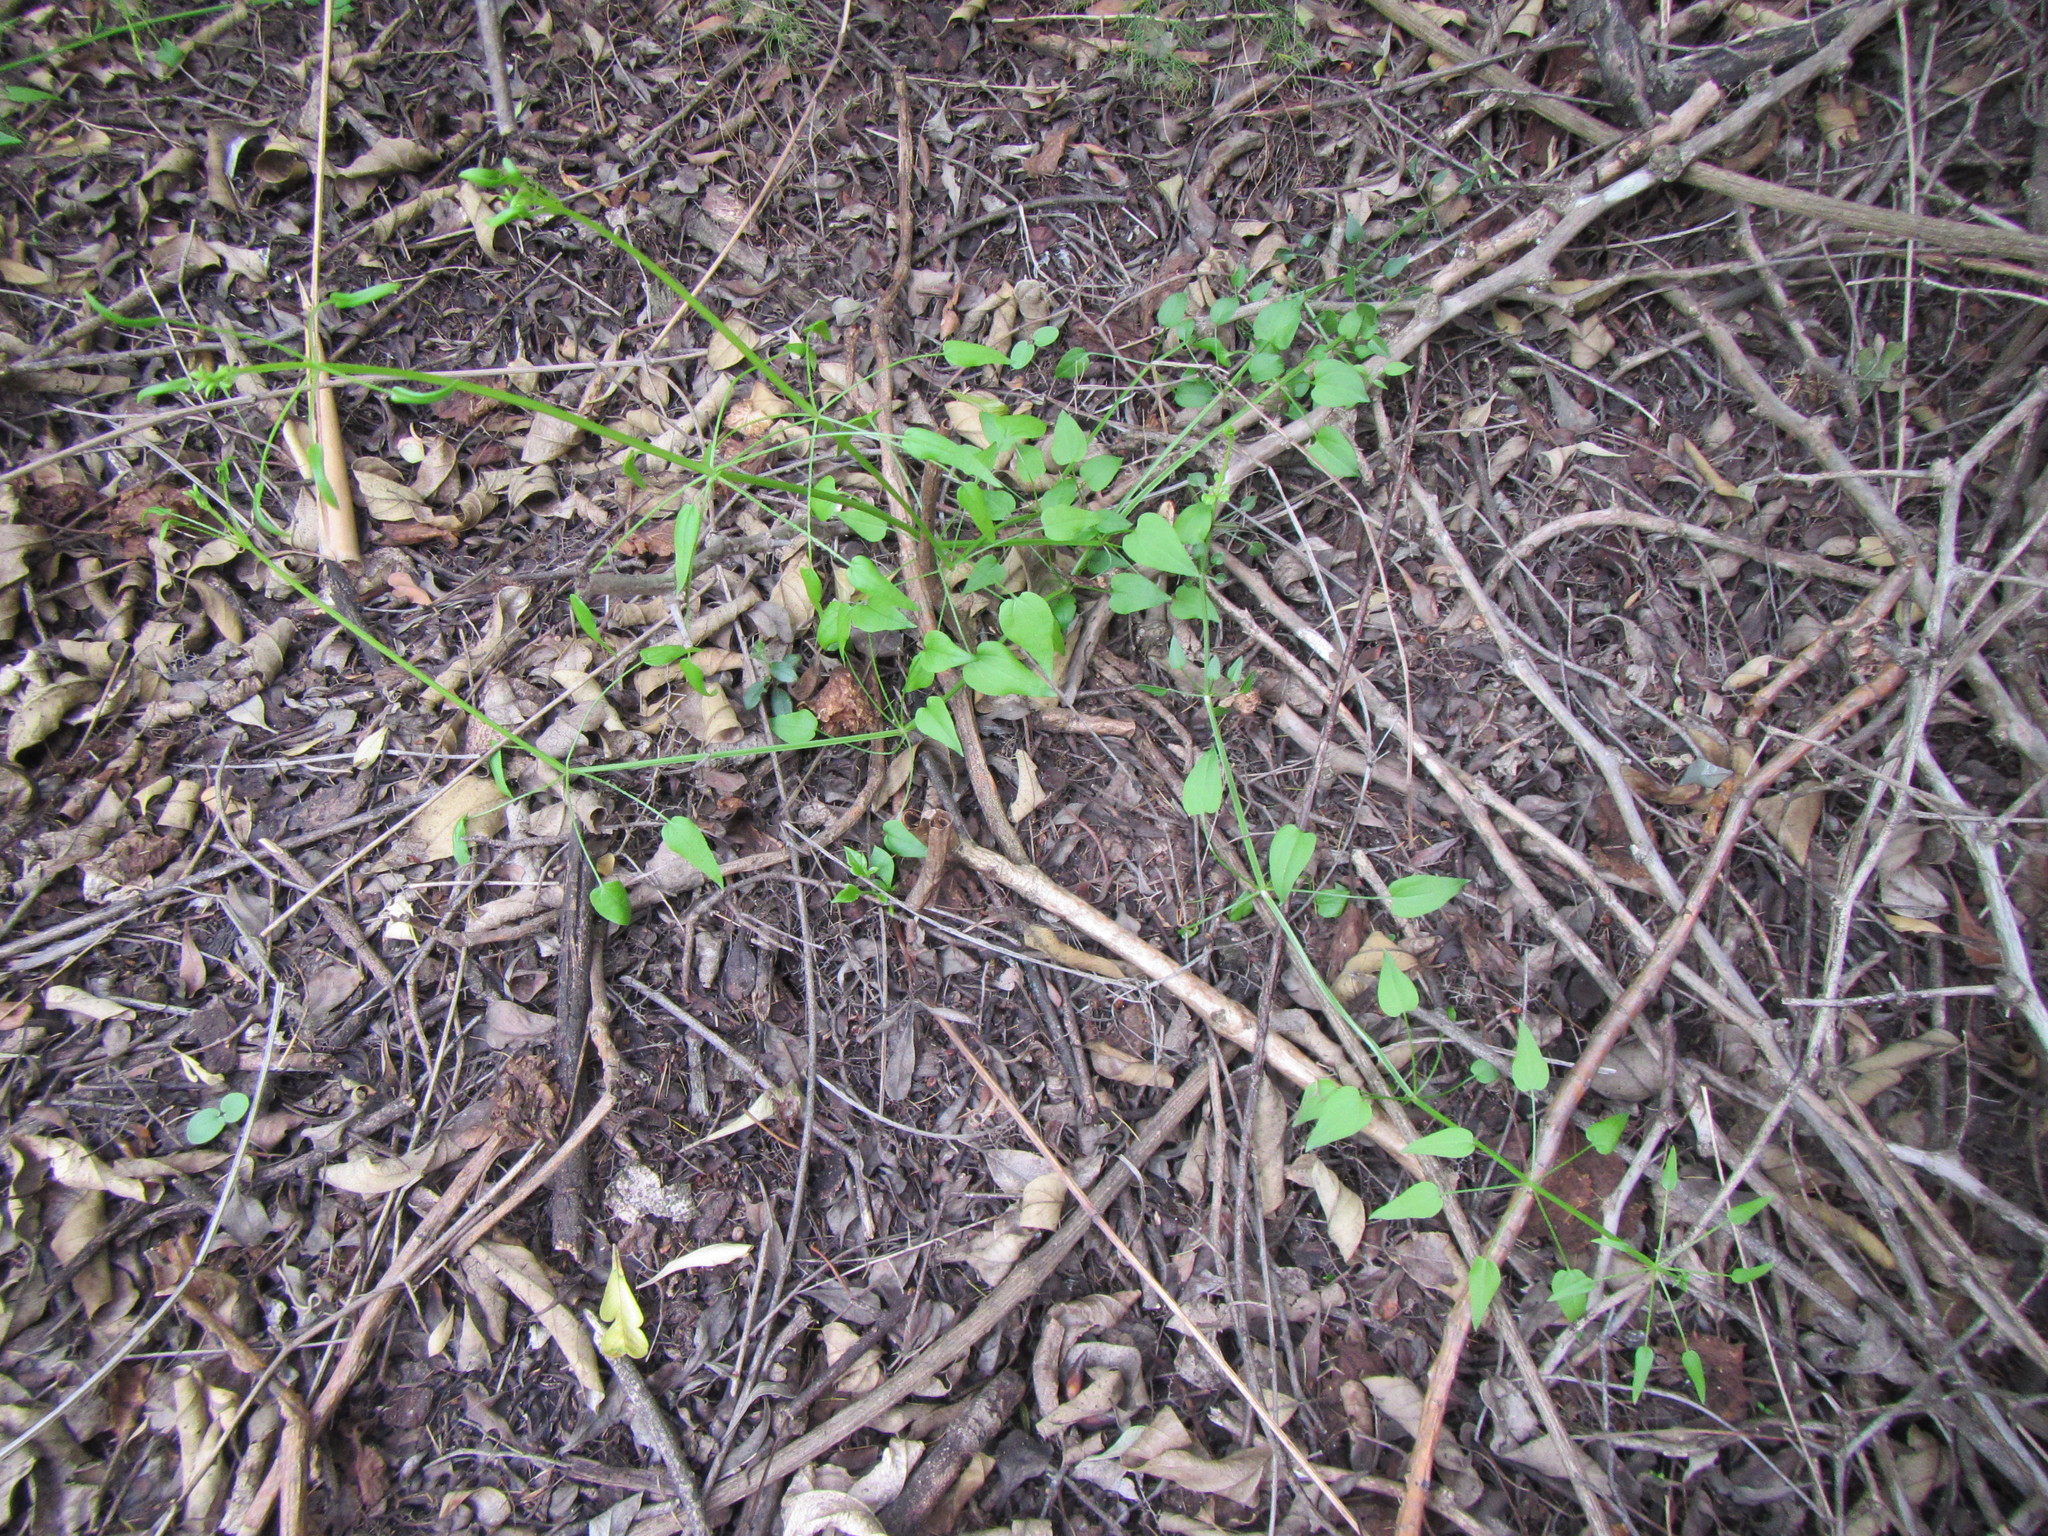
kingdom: Plantae
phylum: Tracheophyta
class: Magnoliopsida
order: Gentianales
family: Rubiaceae
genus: Rubia
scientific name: Rubia petiolaris
